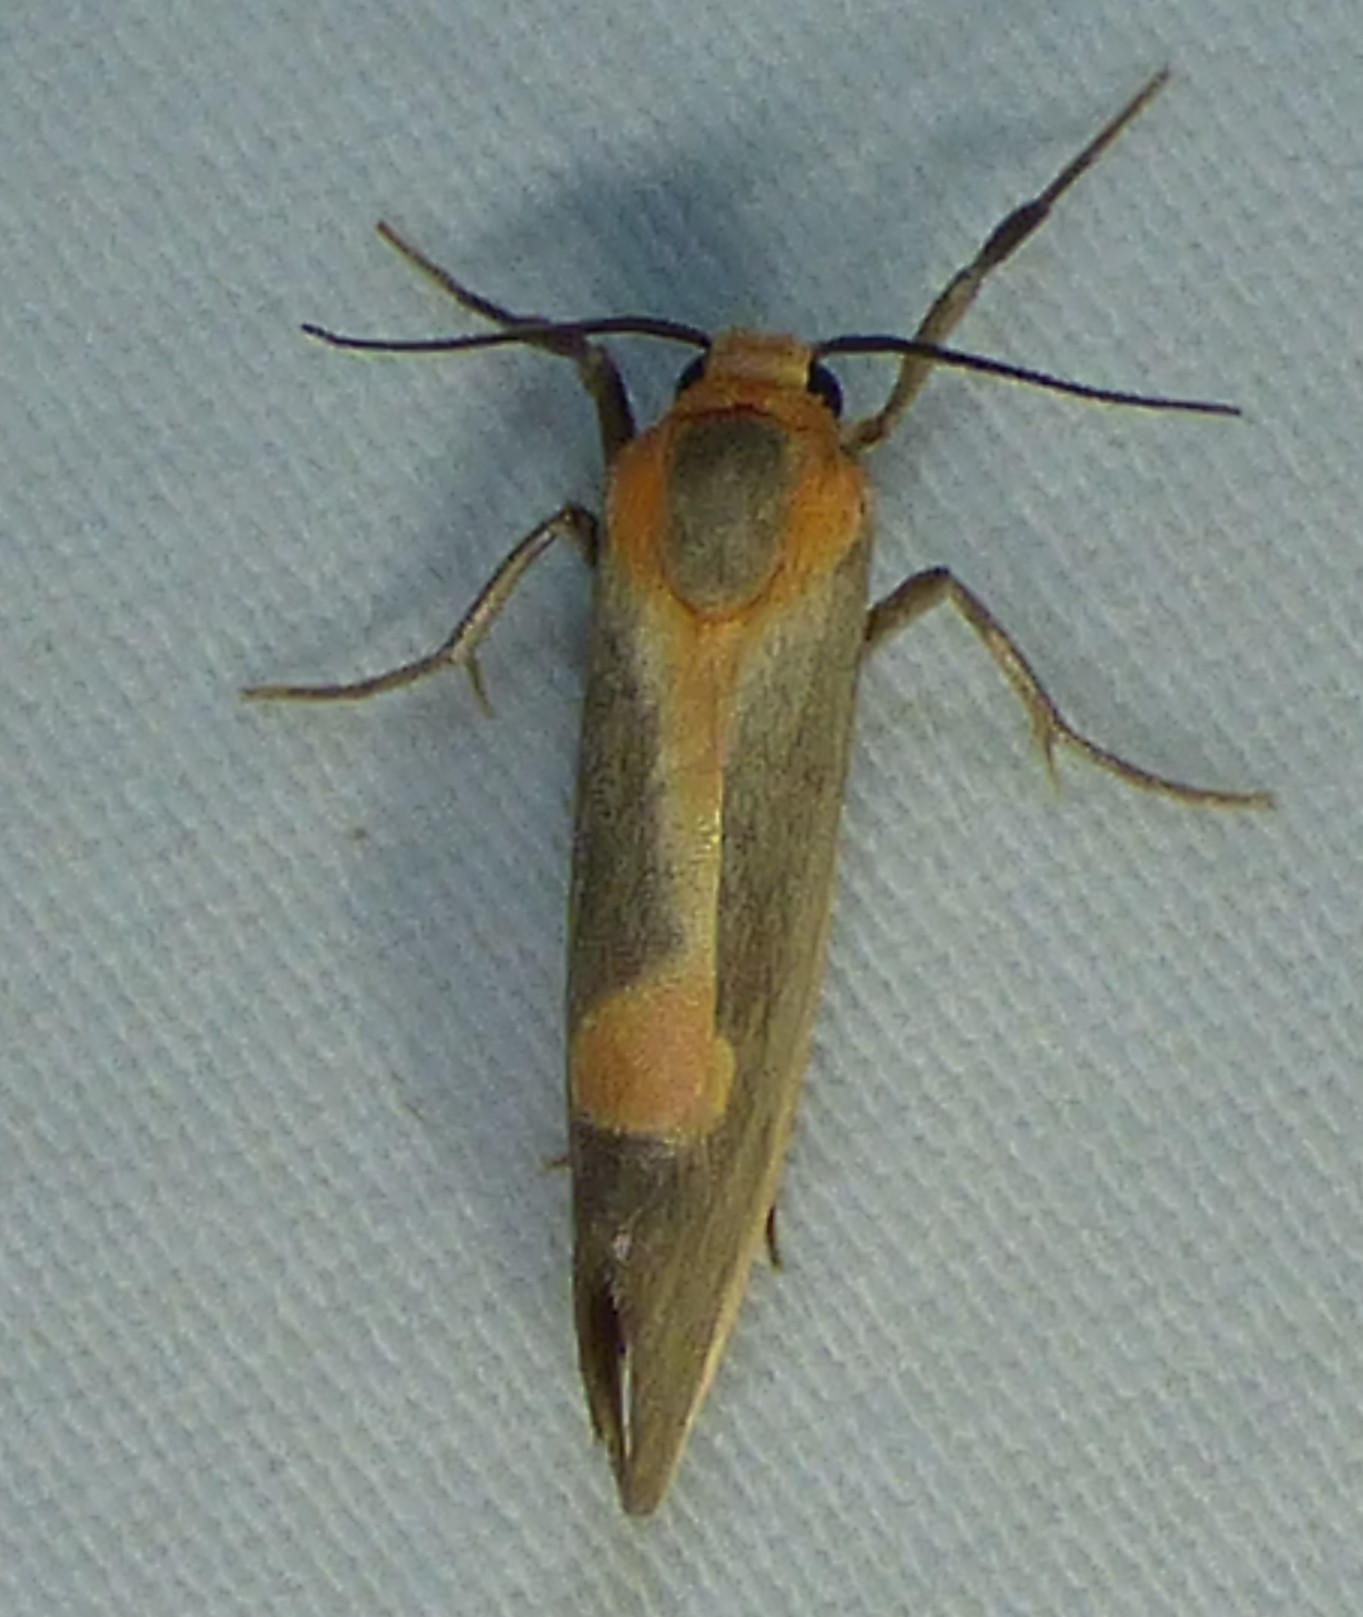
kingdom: Animalia
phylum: Arthropoda
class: Insecta
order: Lepidoptera
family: Erebidae
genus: Cisthene
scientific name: Cisthene plumbea
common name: Lead colored lichen moth
